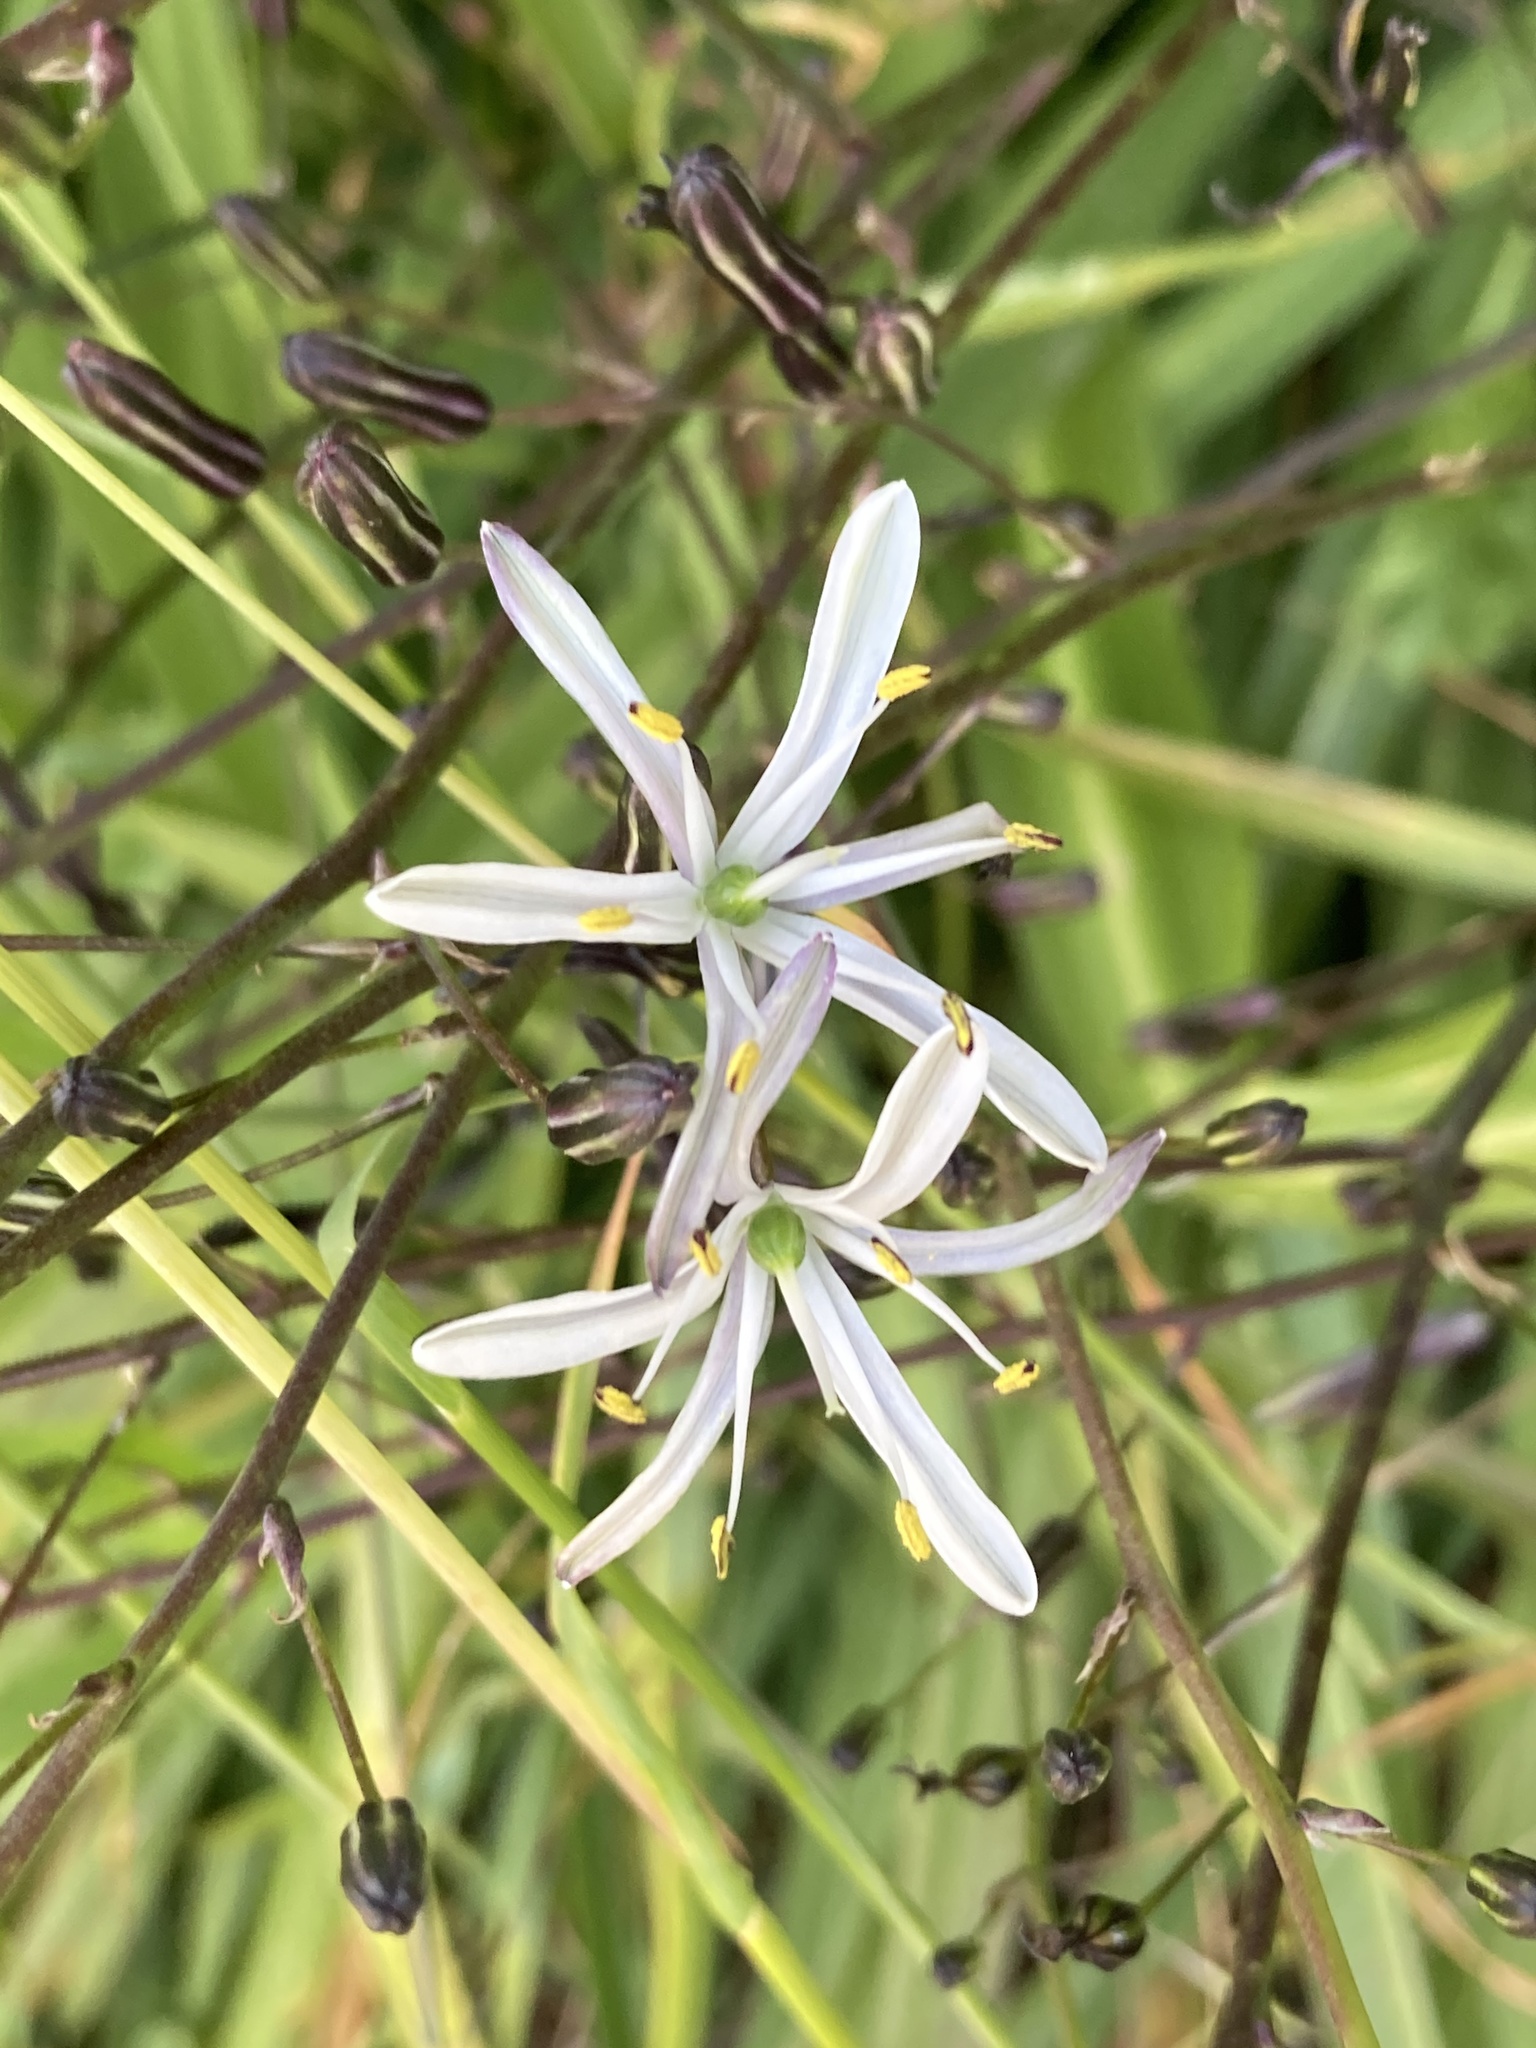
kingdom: Plantae
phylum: Tracheophyta
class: Liliopsida
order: Asparagales
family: Asparagaceae
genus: Chlorogalum
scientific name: Chlorogalum pomeridianum
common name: Amole
